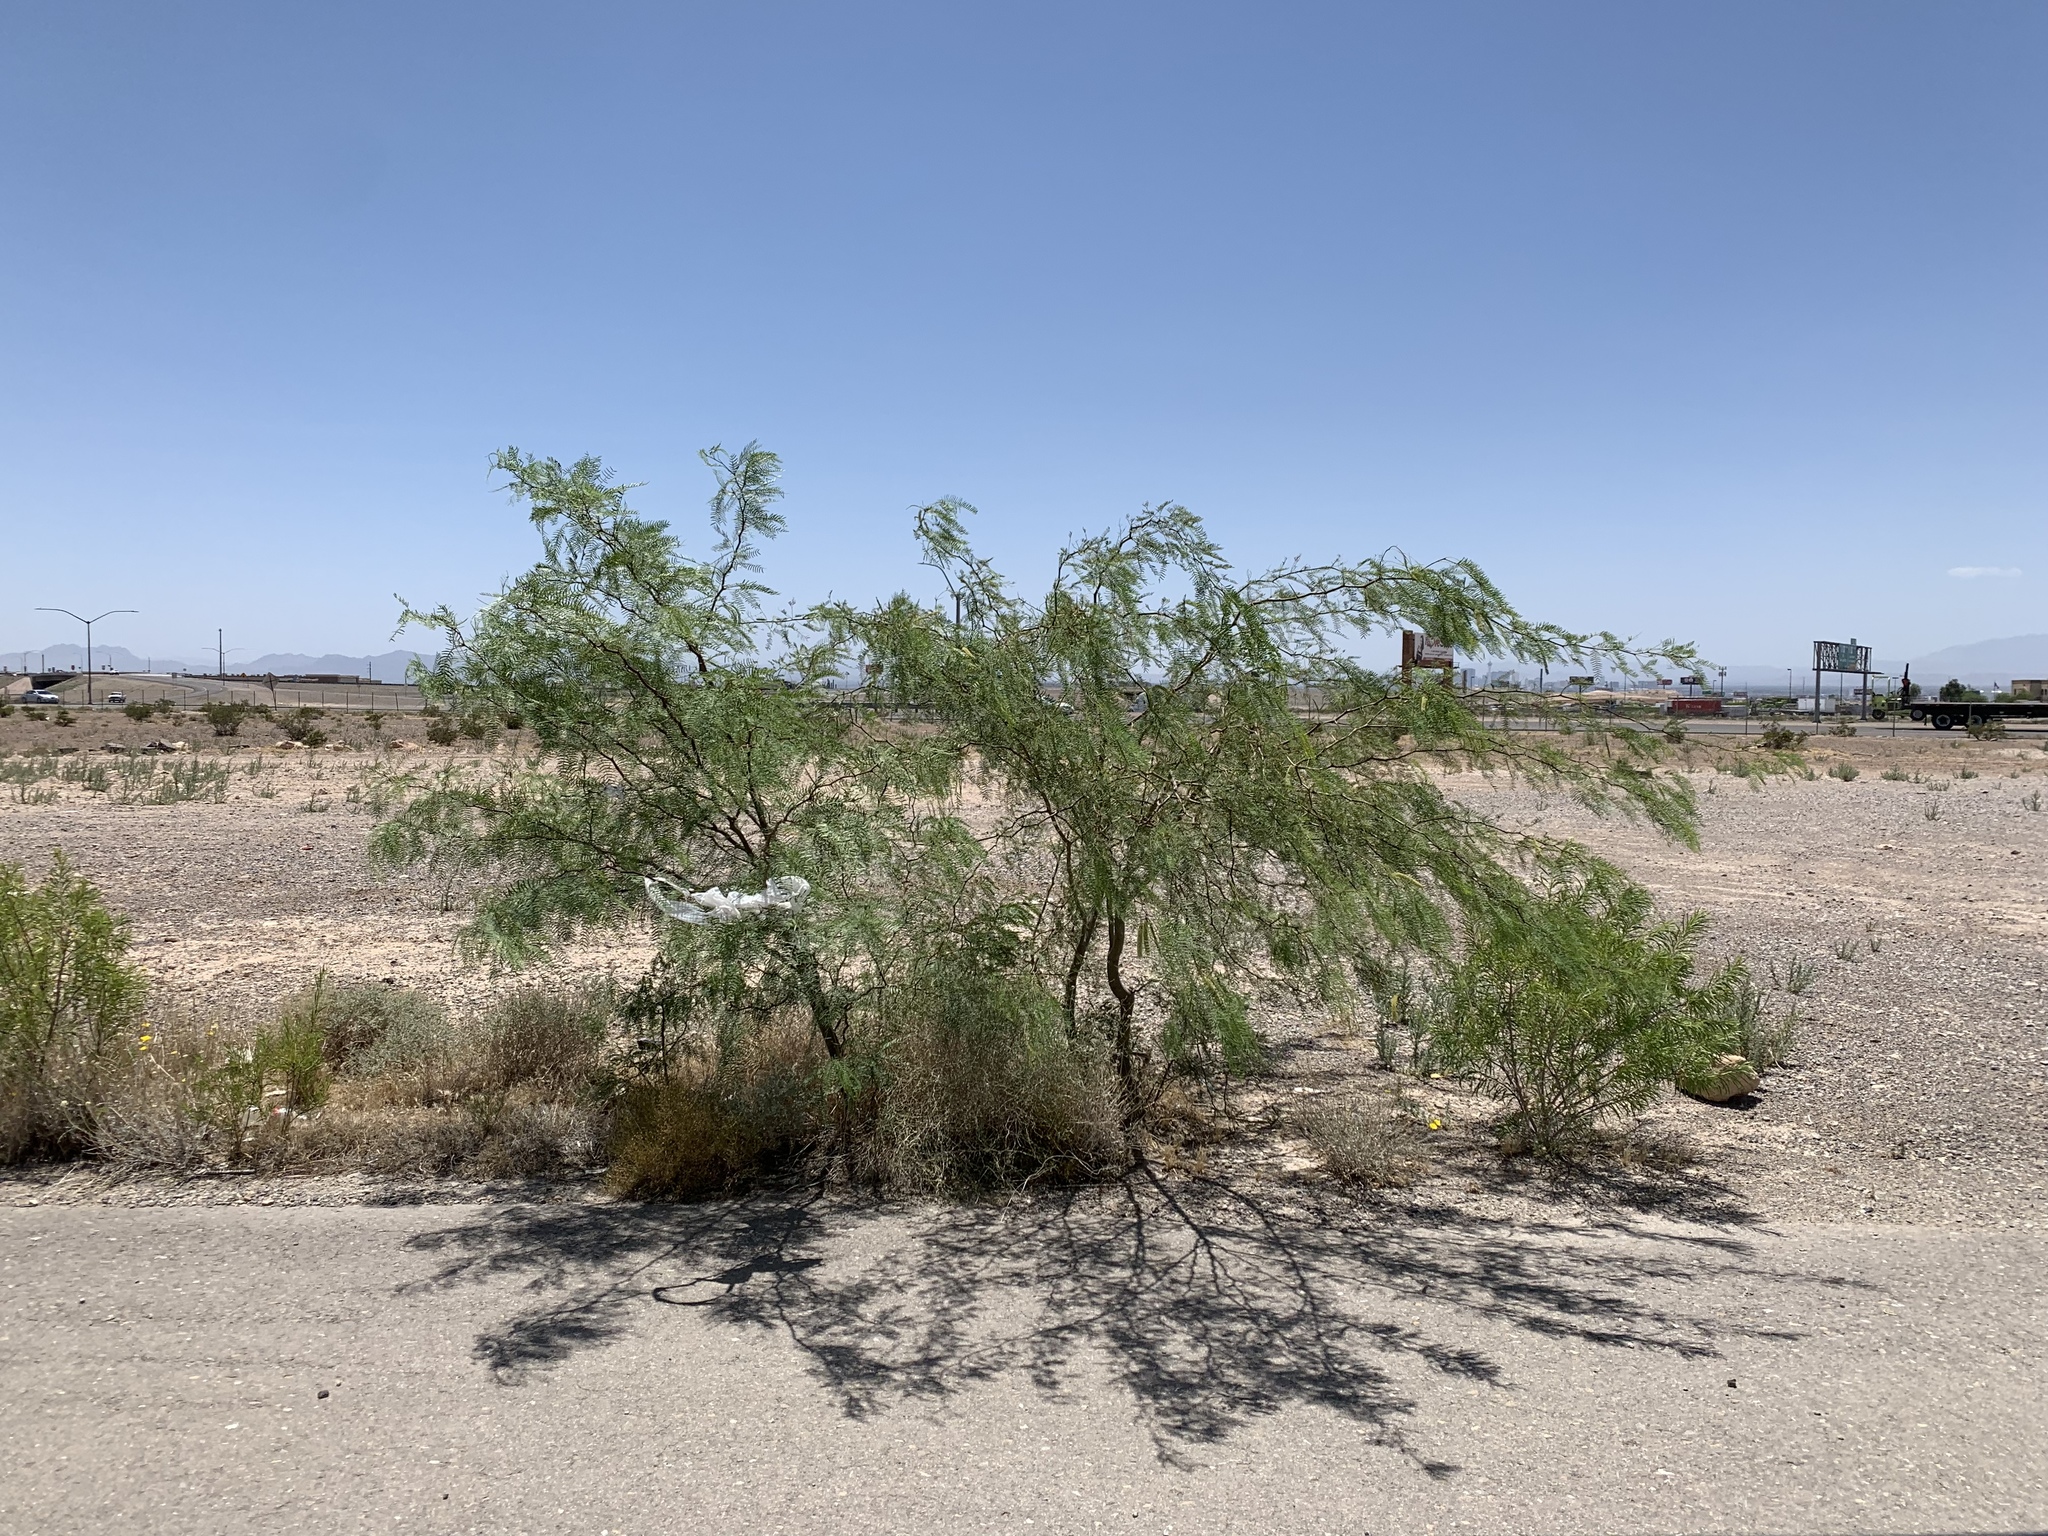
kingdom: Plantae
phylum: Tracheophyta
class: Magnoliopsida
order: Fabales
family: Fabaceae
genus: Prosopis
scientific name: Prosopis pubescens
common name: Screw-bean
